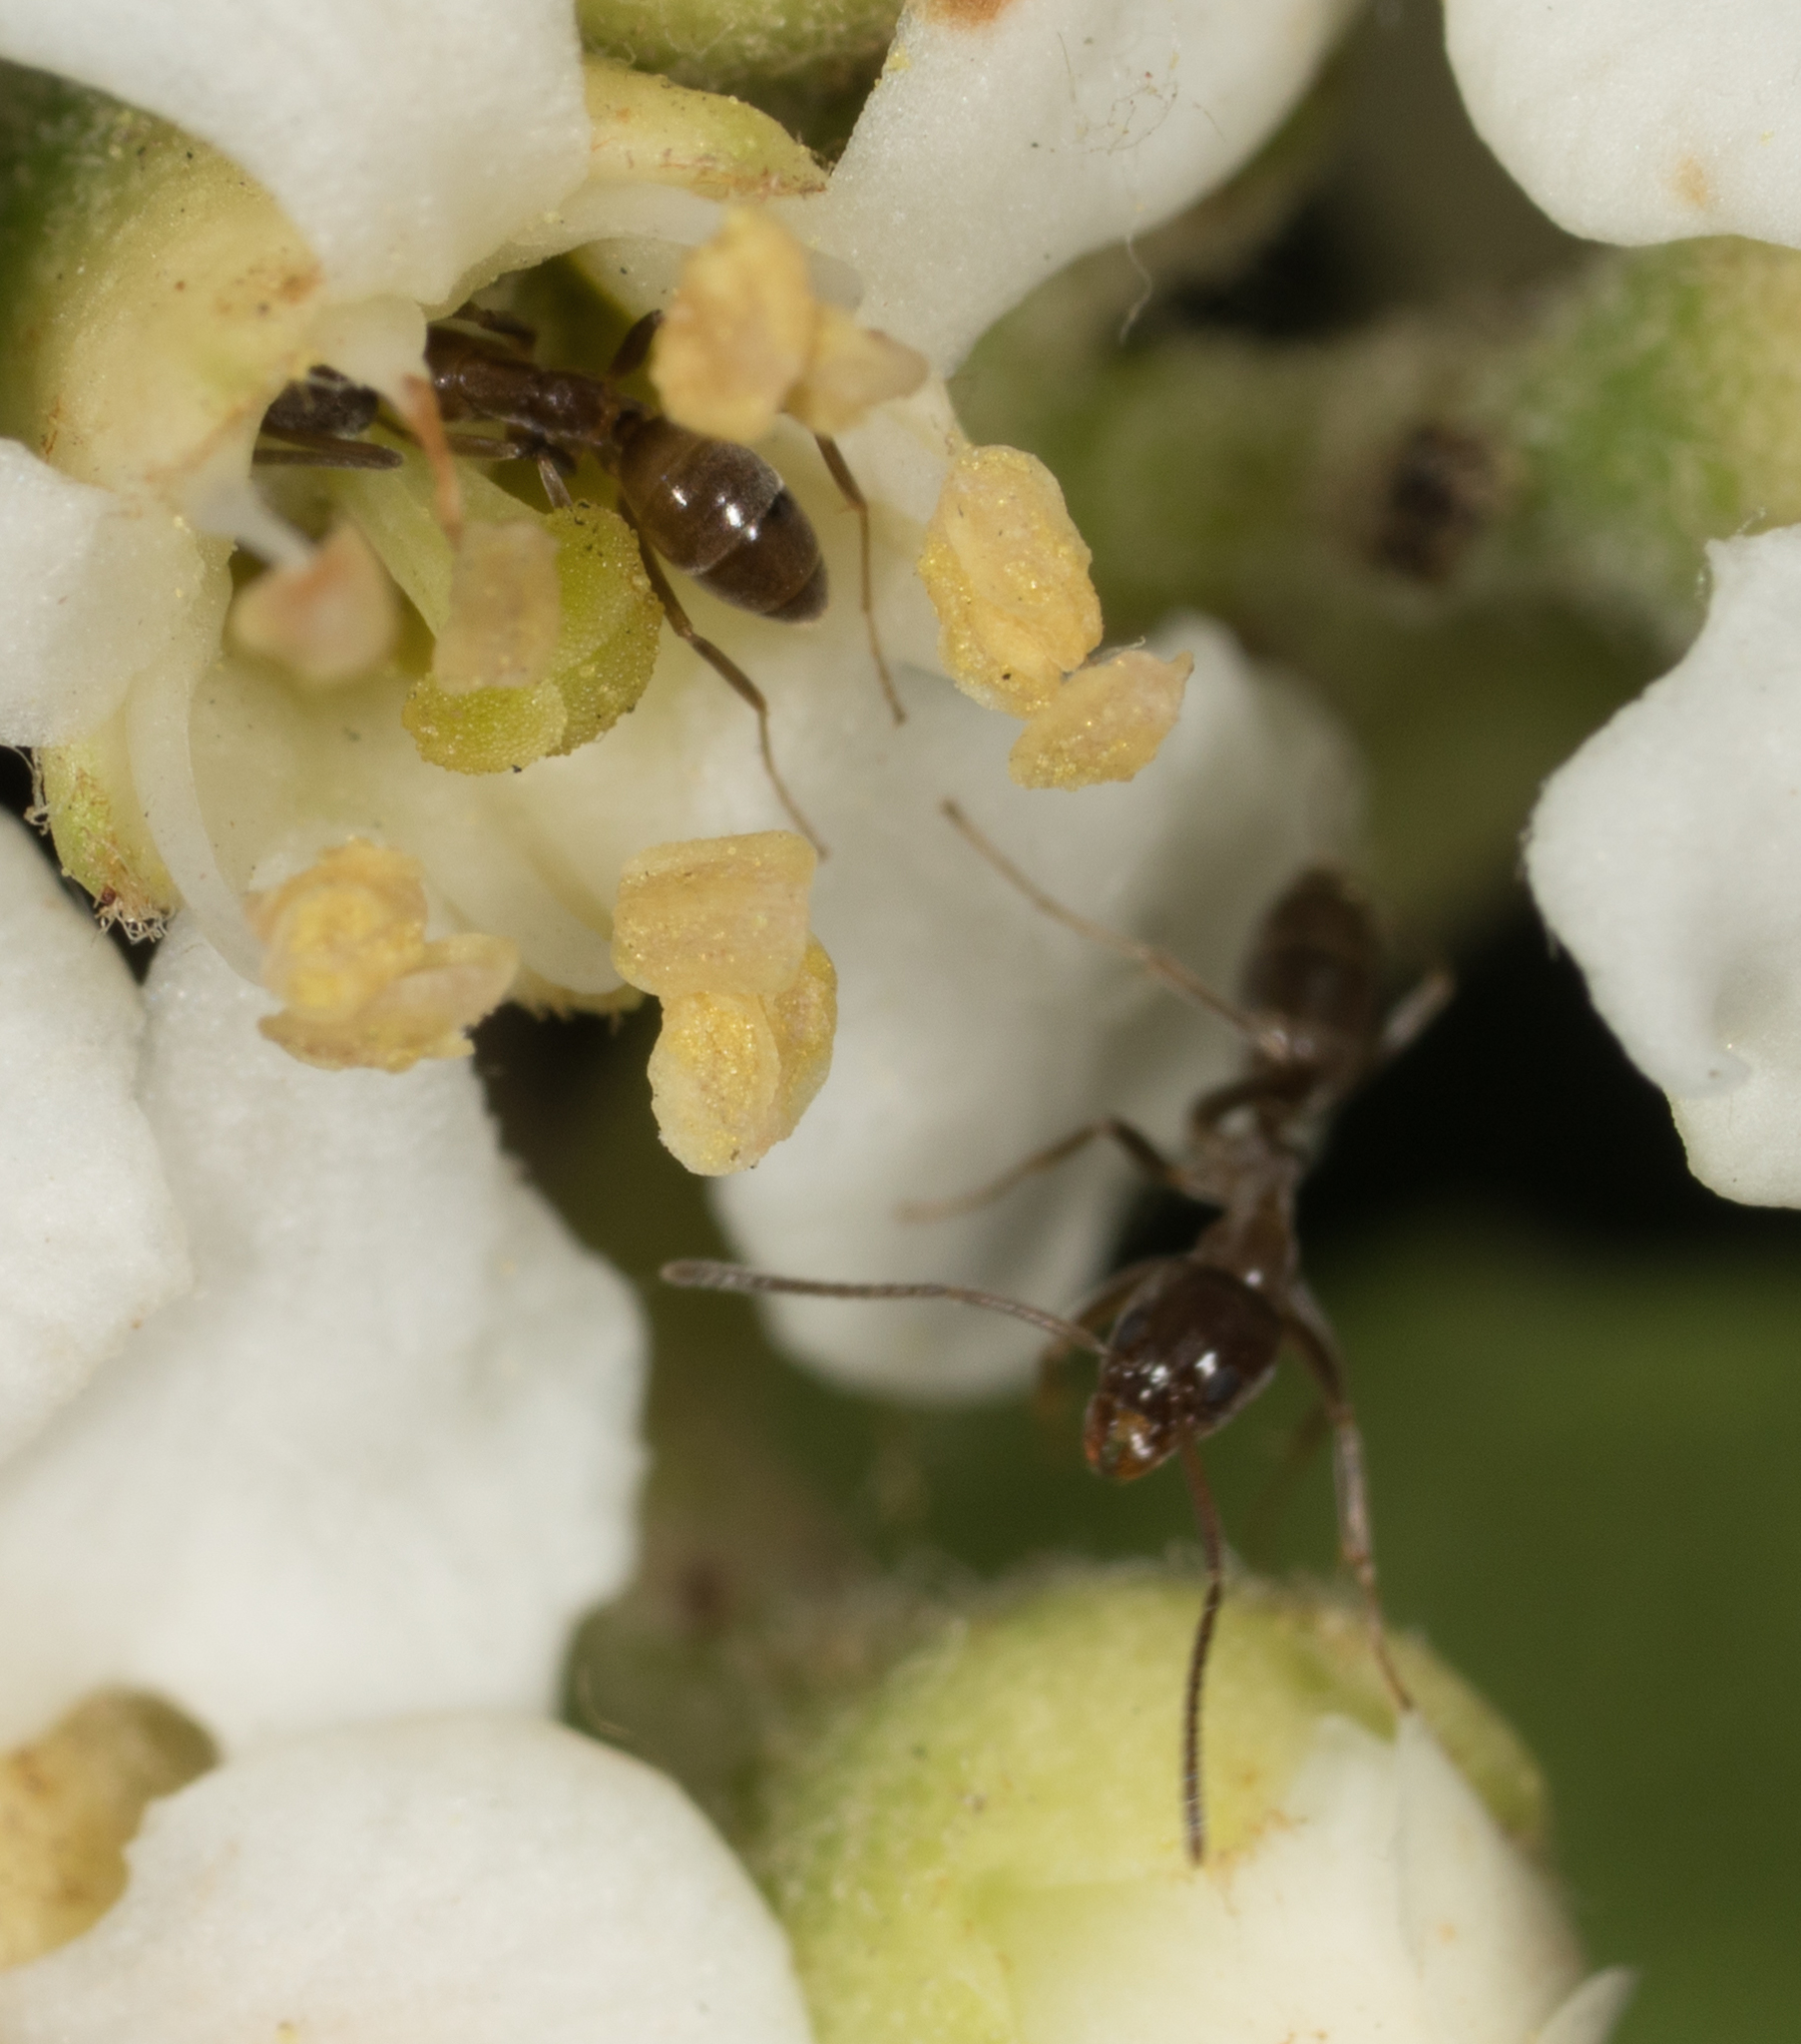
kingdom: Animalia
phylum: Arthropoda
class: Insecta
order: Hymenoptera
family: Formicidae
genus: Linepithema
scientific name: Linepithema humile
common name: Argentine ant
